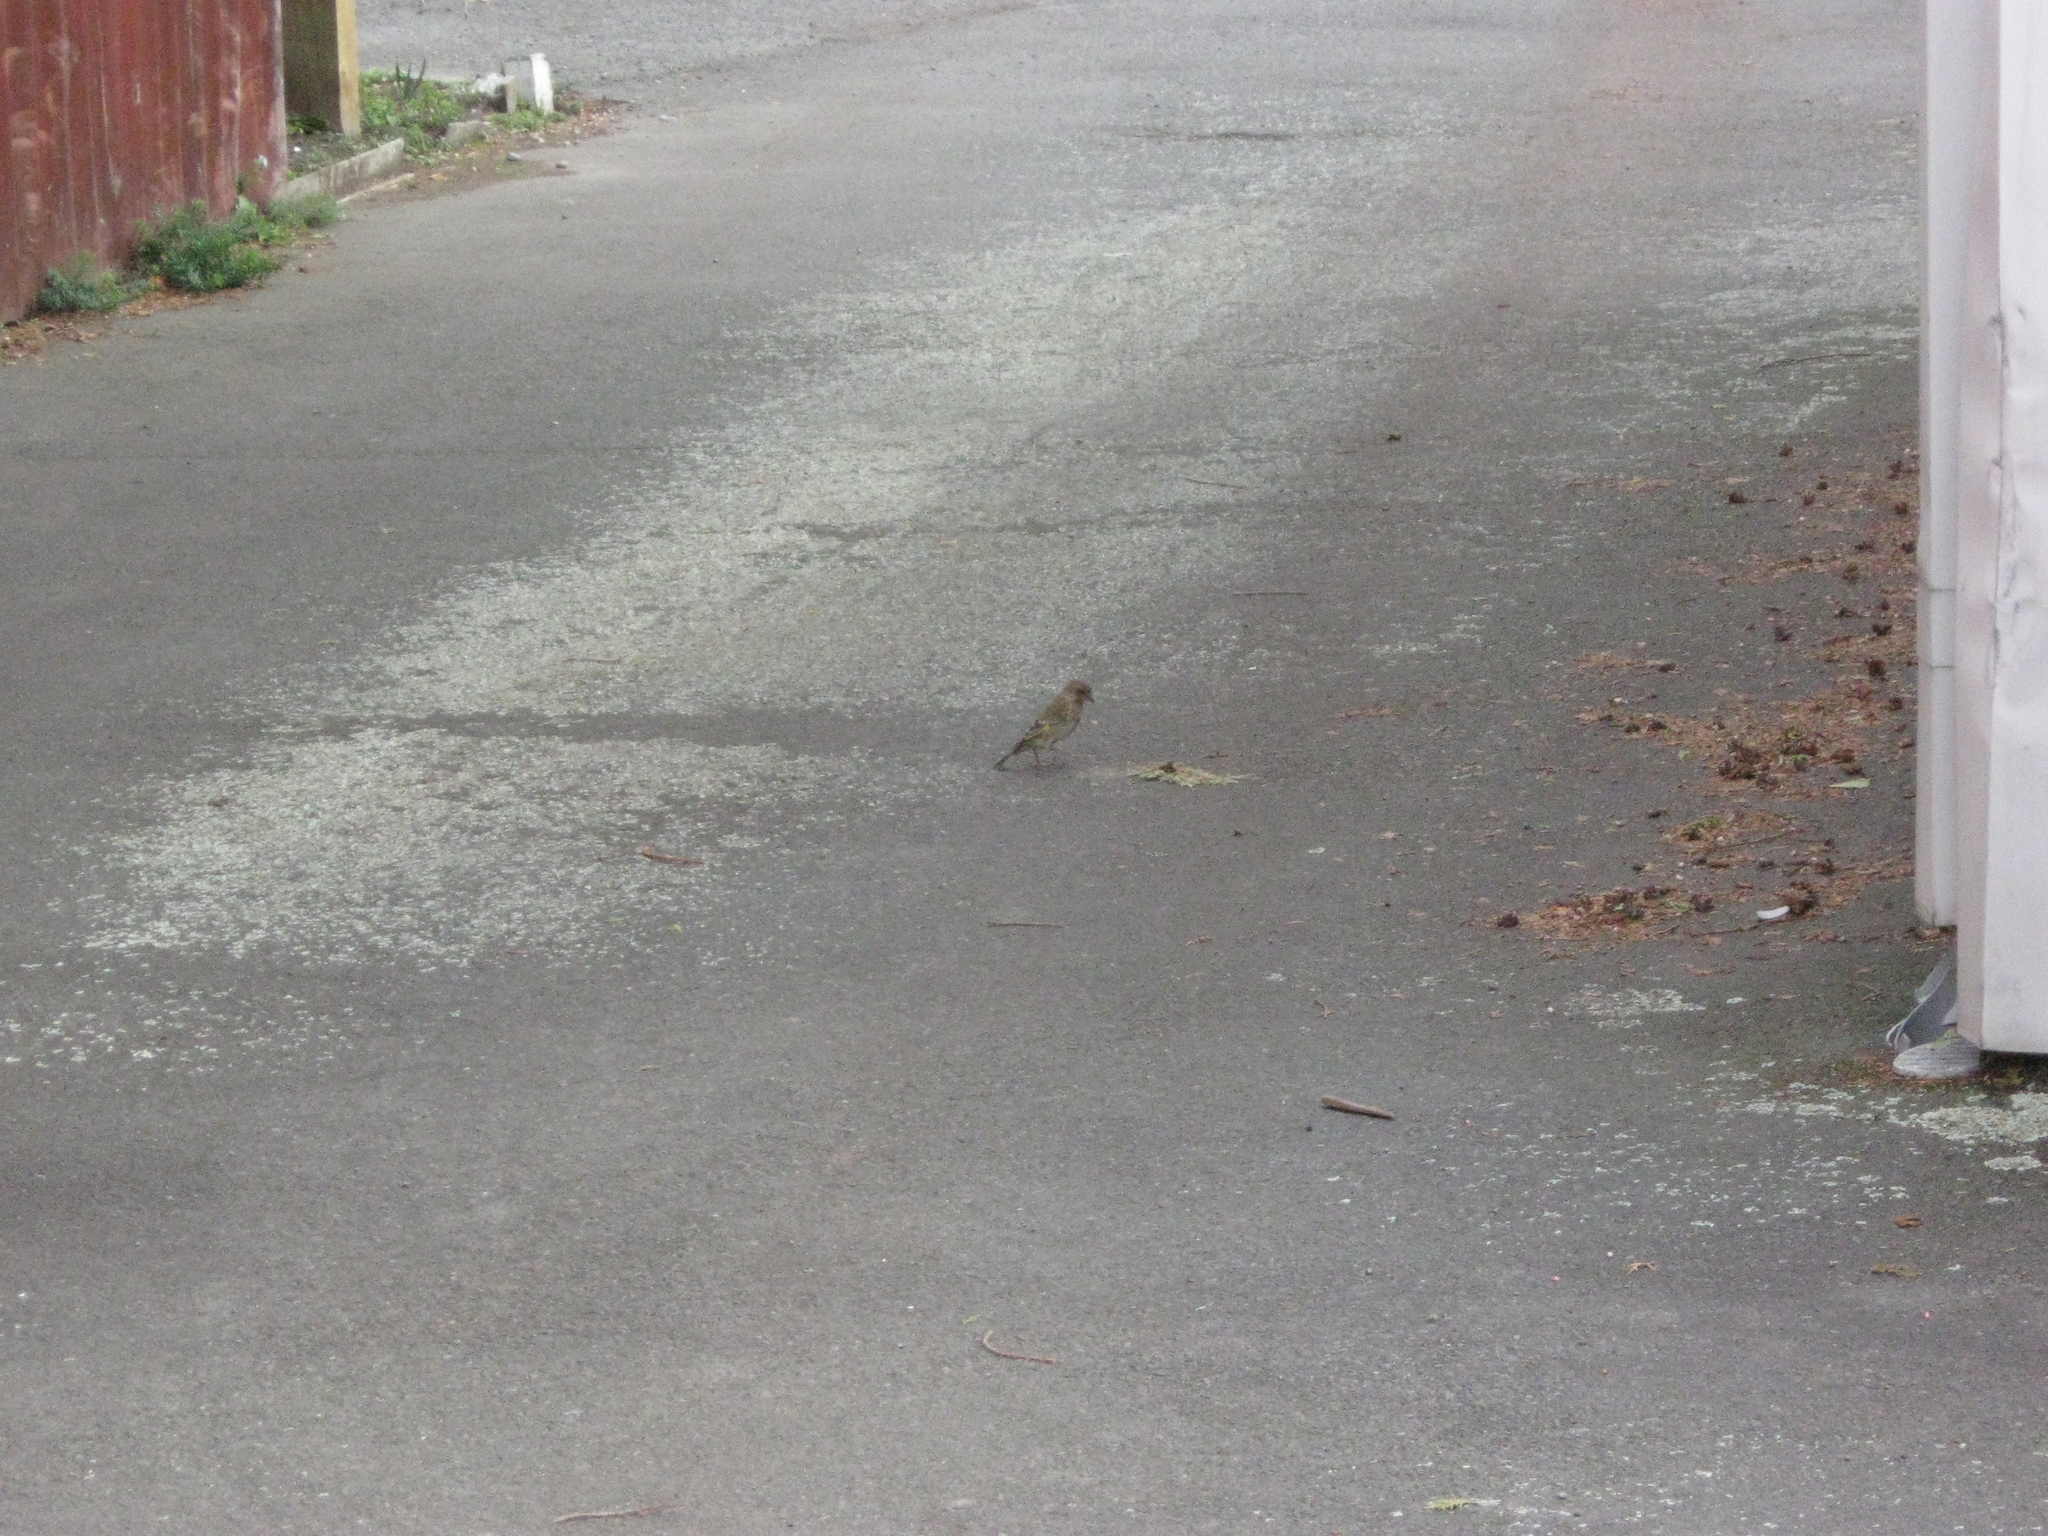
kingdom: Plantae
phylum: Tracheophyta
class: Liliopsida
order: Poales
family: Poaceae
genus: Chloris
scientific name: Chloris chloris
